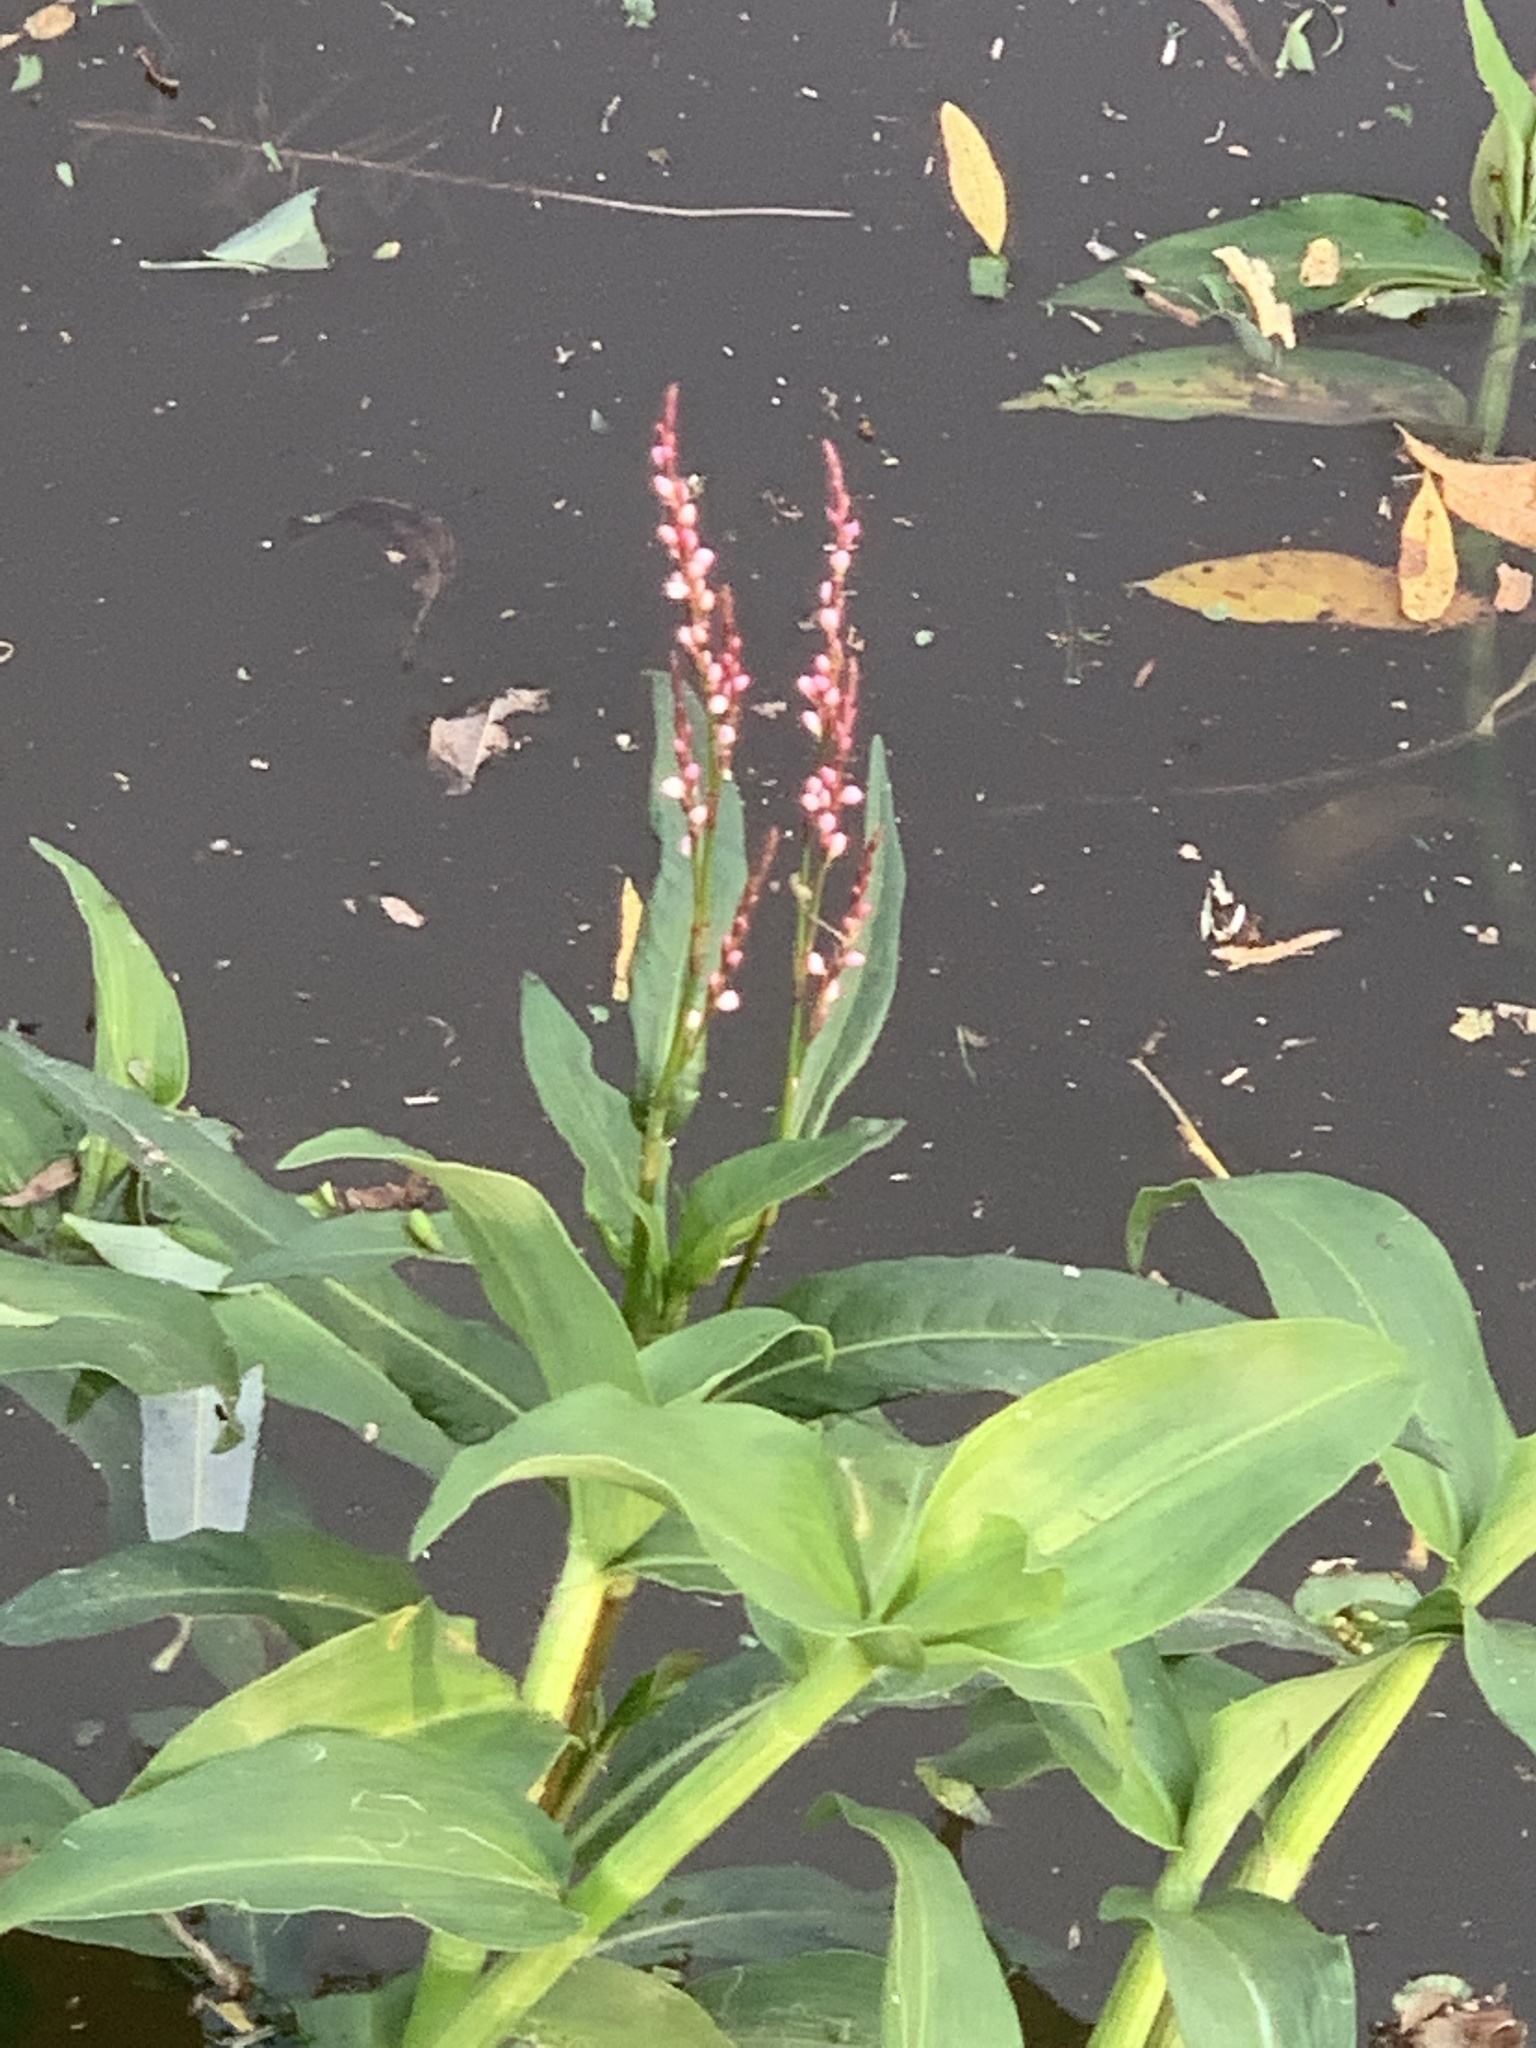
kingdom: Plantae
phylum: Tracheophyta
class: Magnoliopsida
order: Caryophyllales
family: Polygonaceae
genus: Persicaria
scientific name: Persicaria decipiens
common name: Willow-weed
